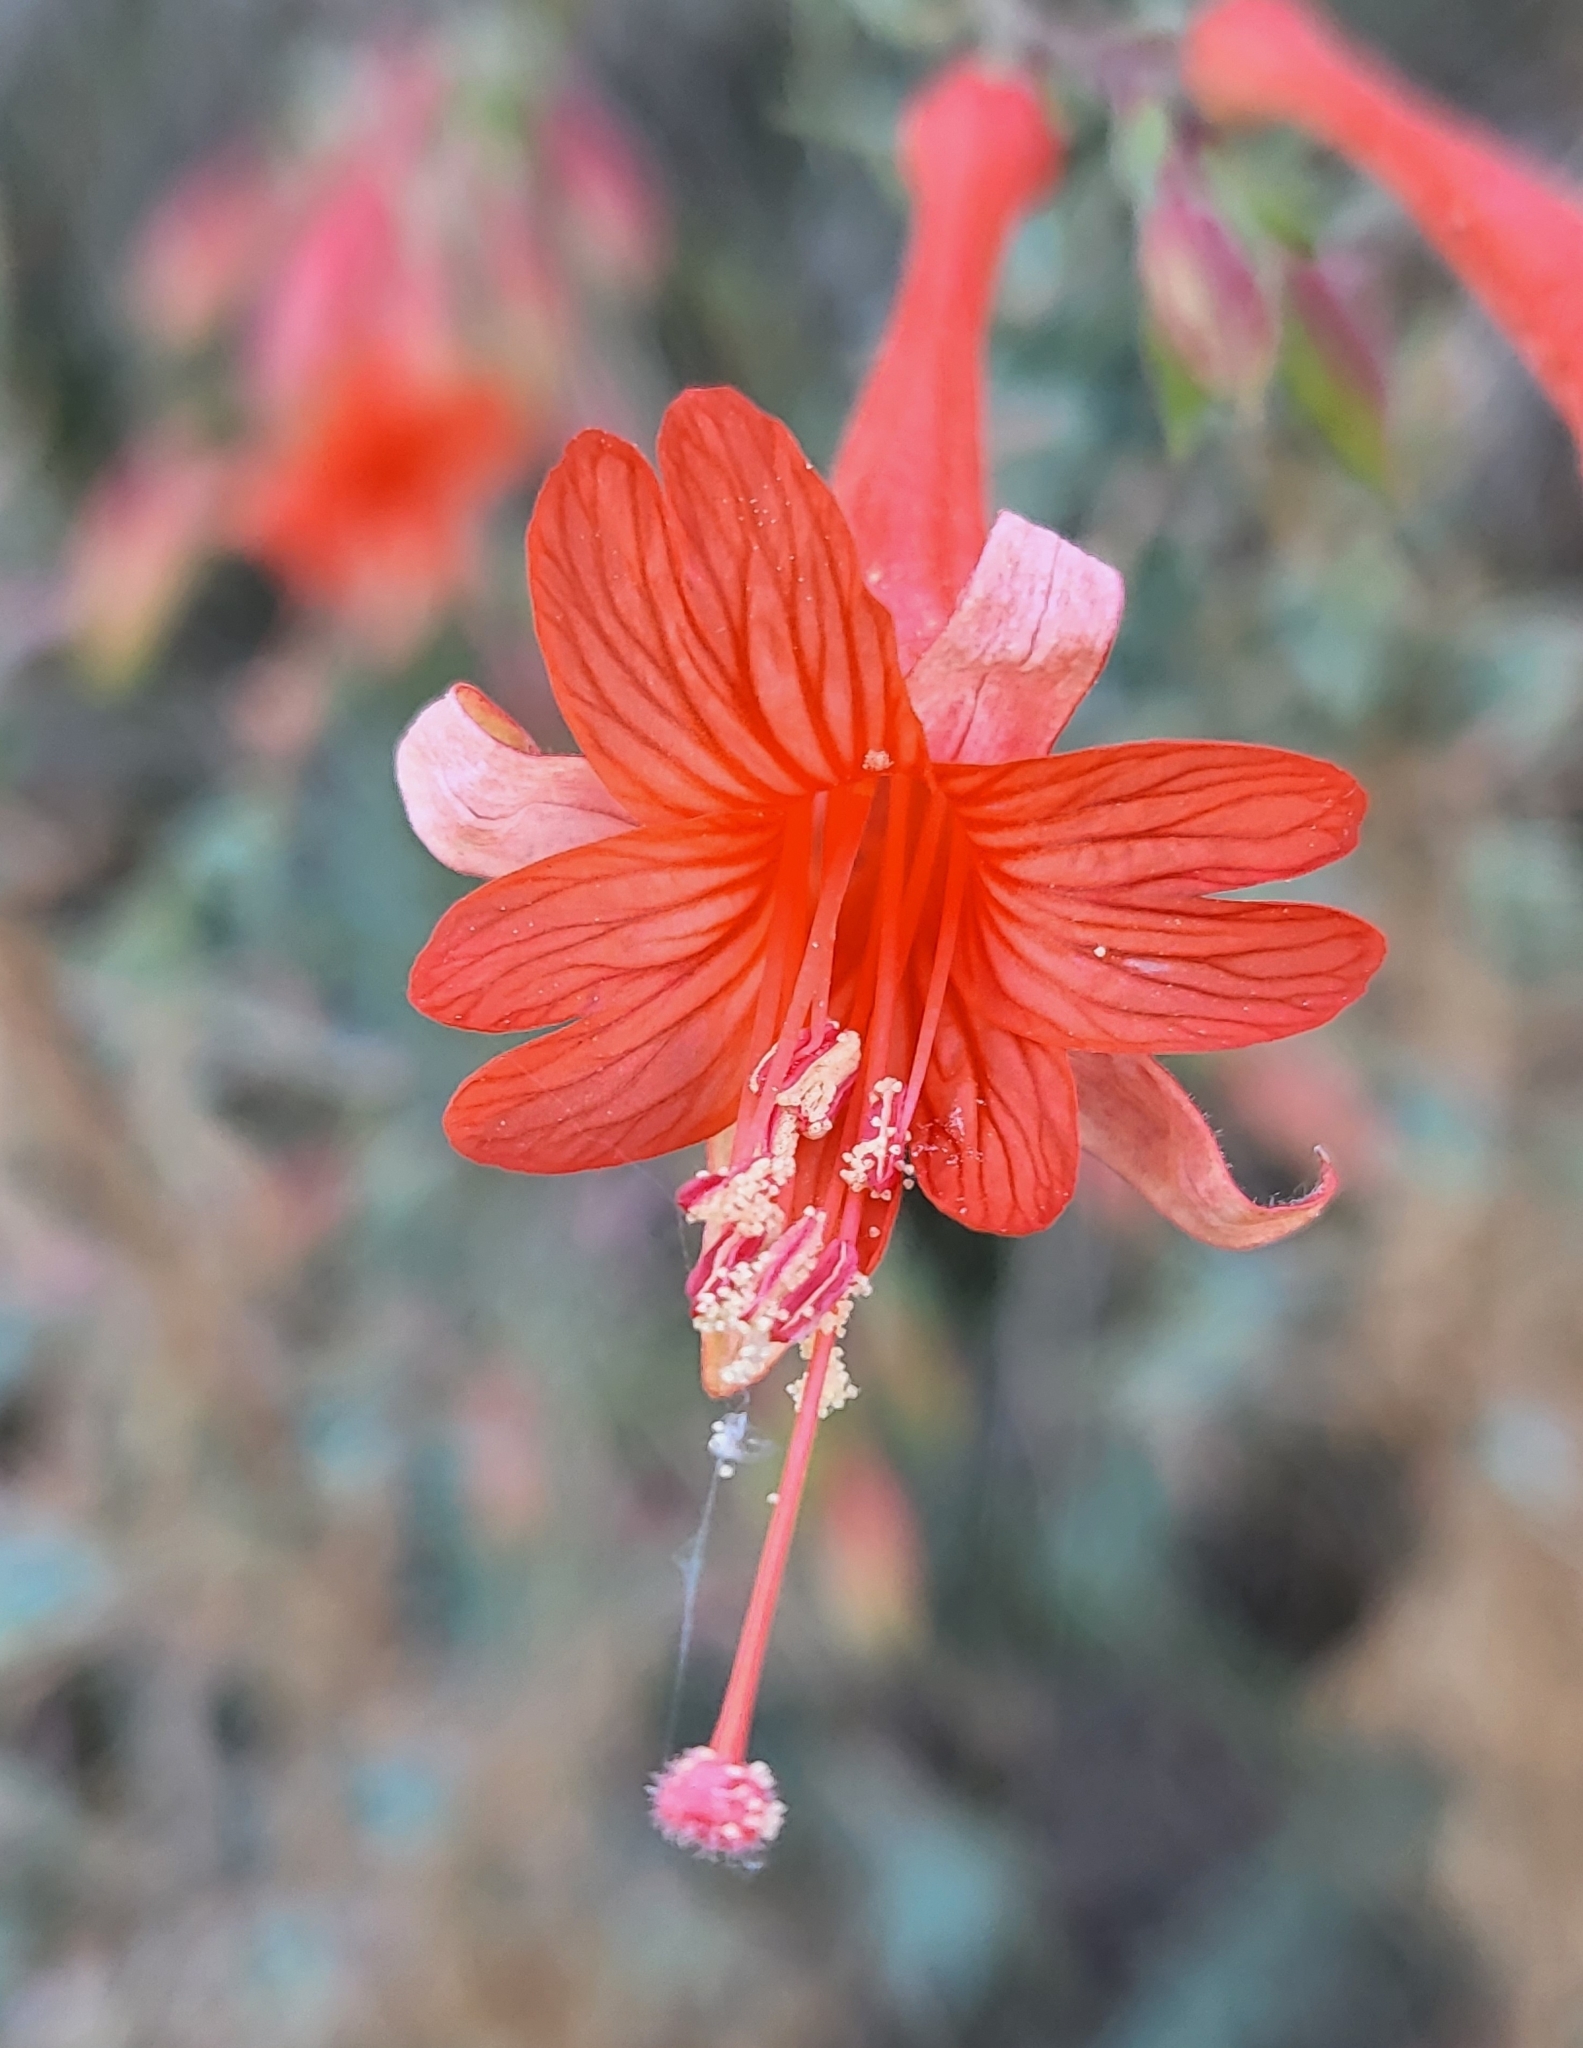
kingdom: Plantae
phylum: Tracheophyta
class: Magnoliopsida
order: Myrtales
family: Onagraceae
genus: Epilobium
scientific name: Epilobium canum
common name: California-fuchsia
